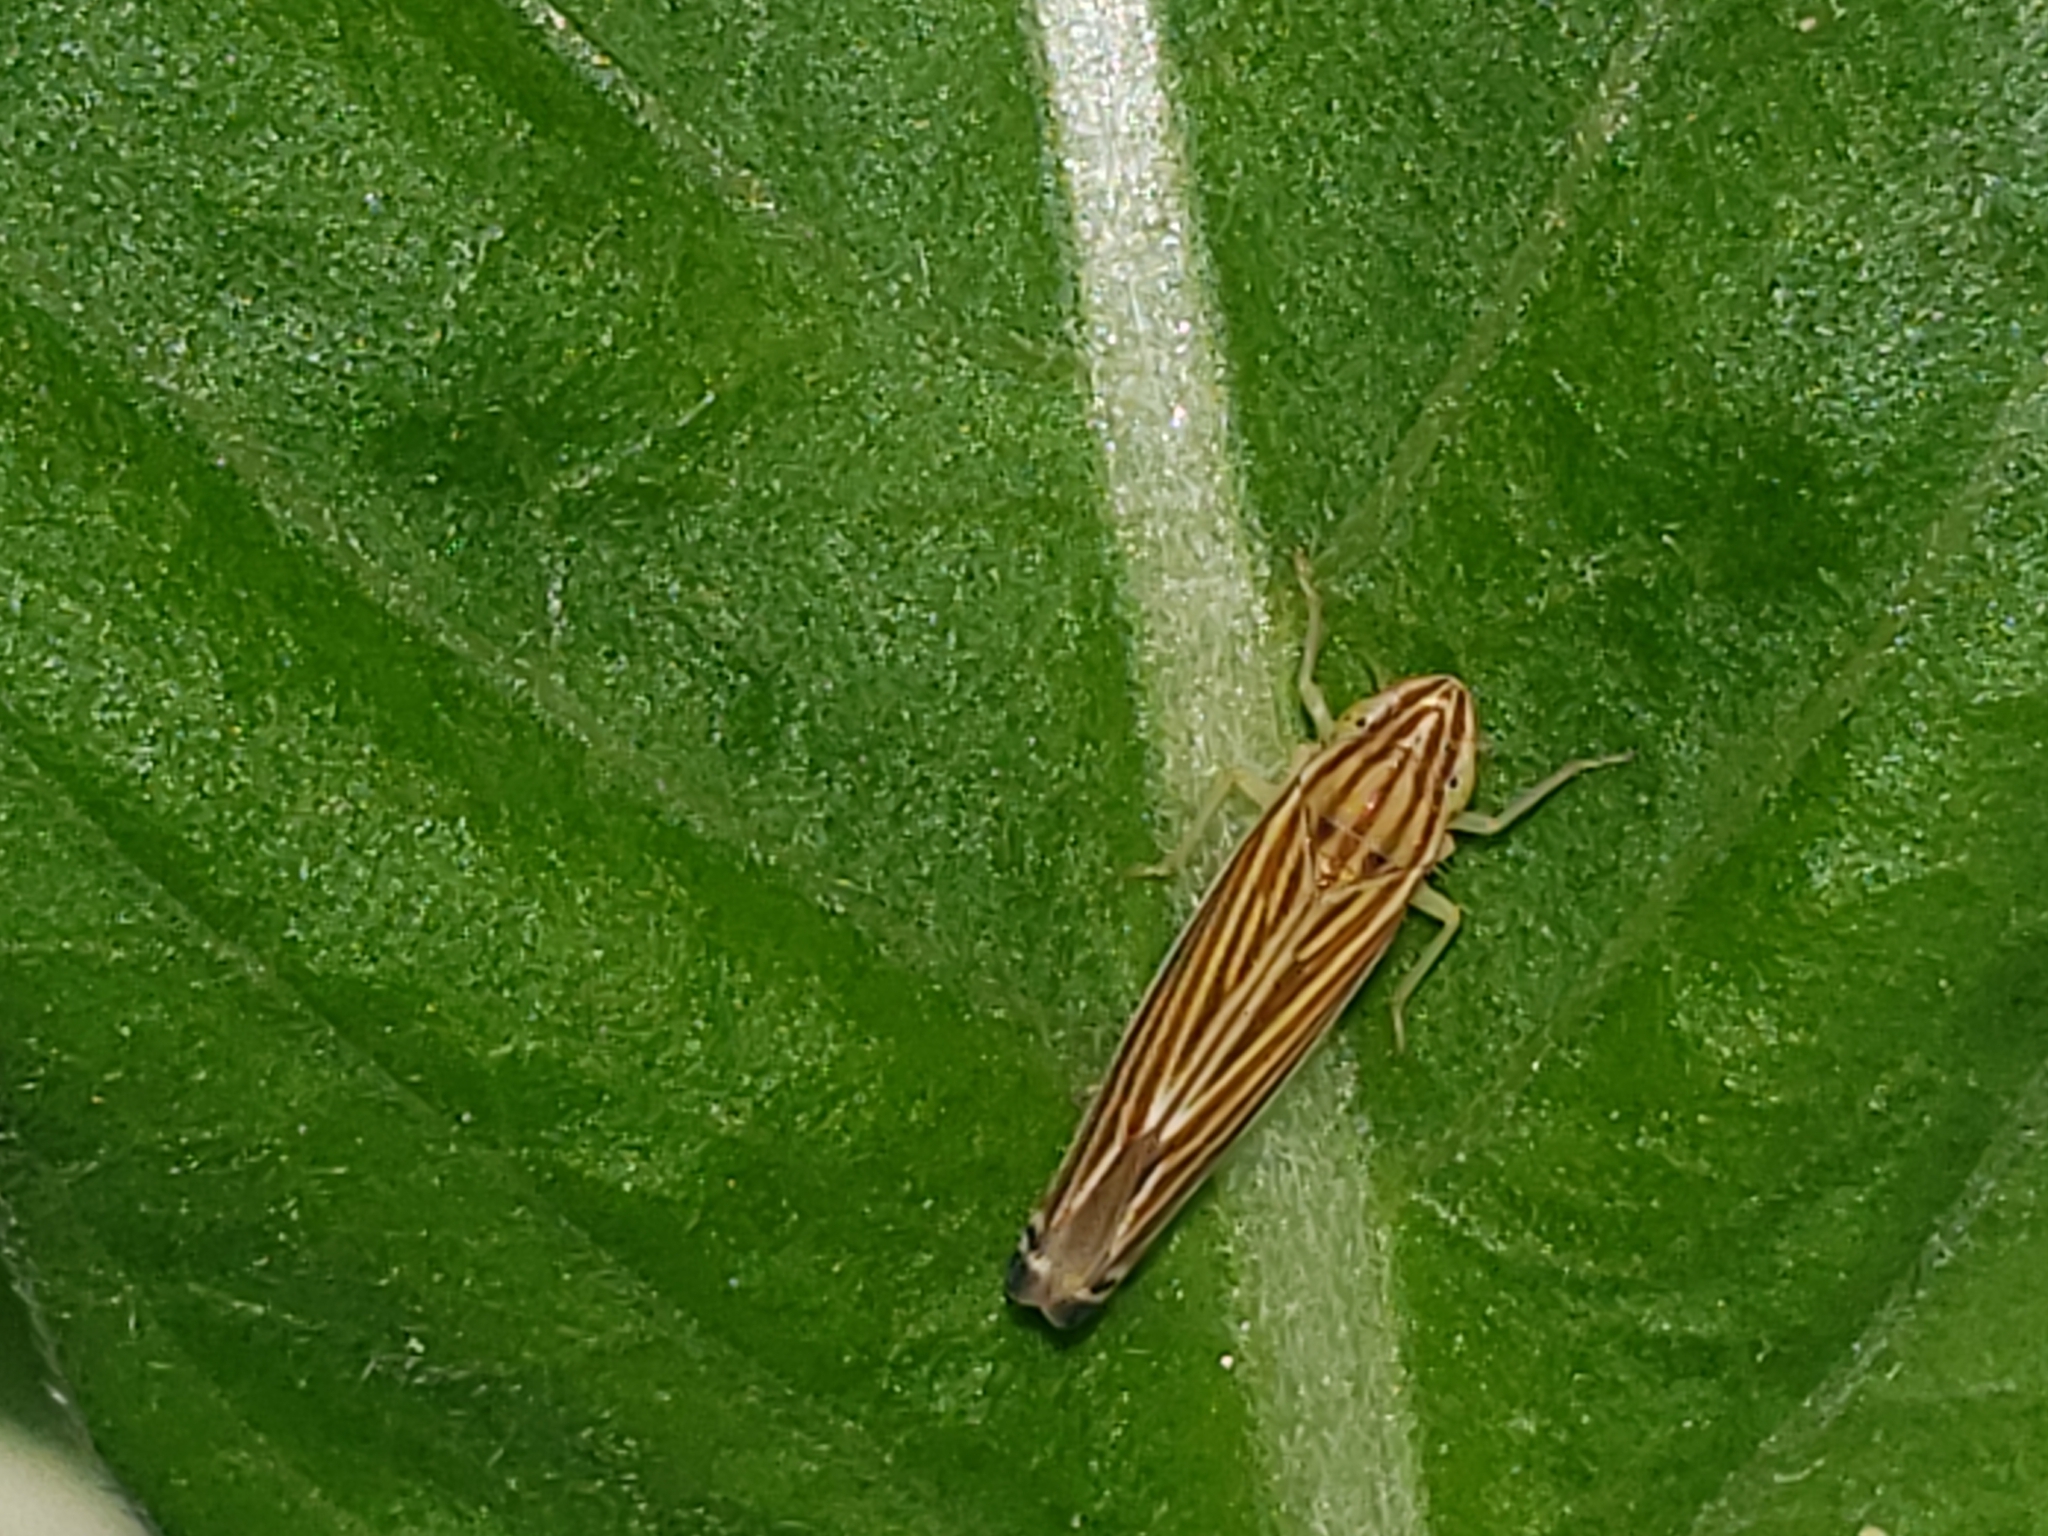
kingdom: Animalia
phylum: Arthropoda
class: Insecta
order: Hemiptera
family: Cicadellidae
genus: Sibovia
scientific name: Sibovia occatoria
